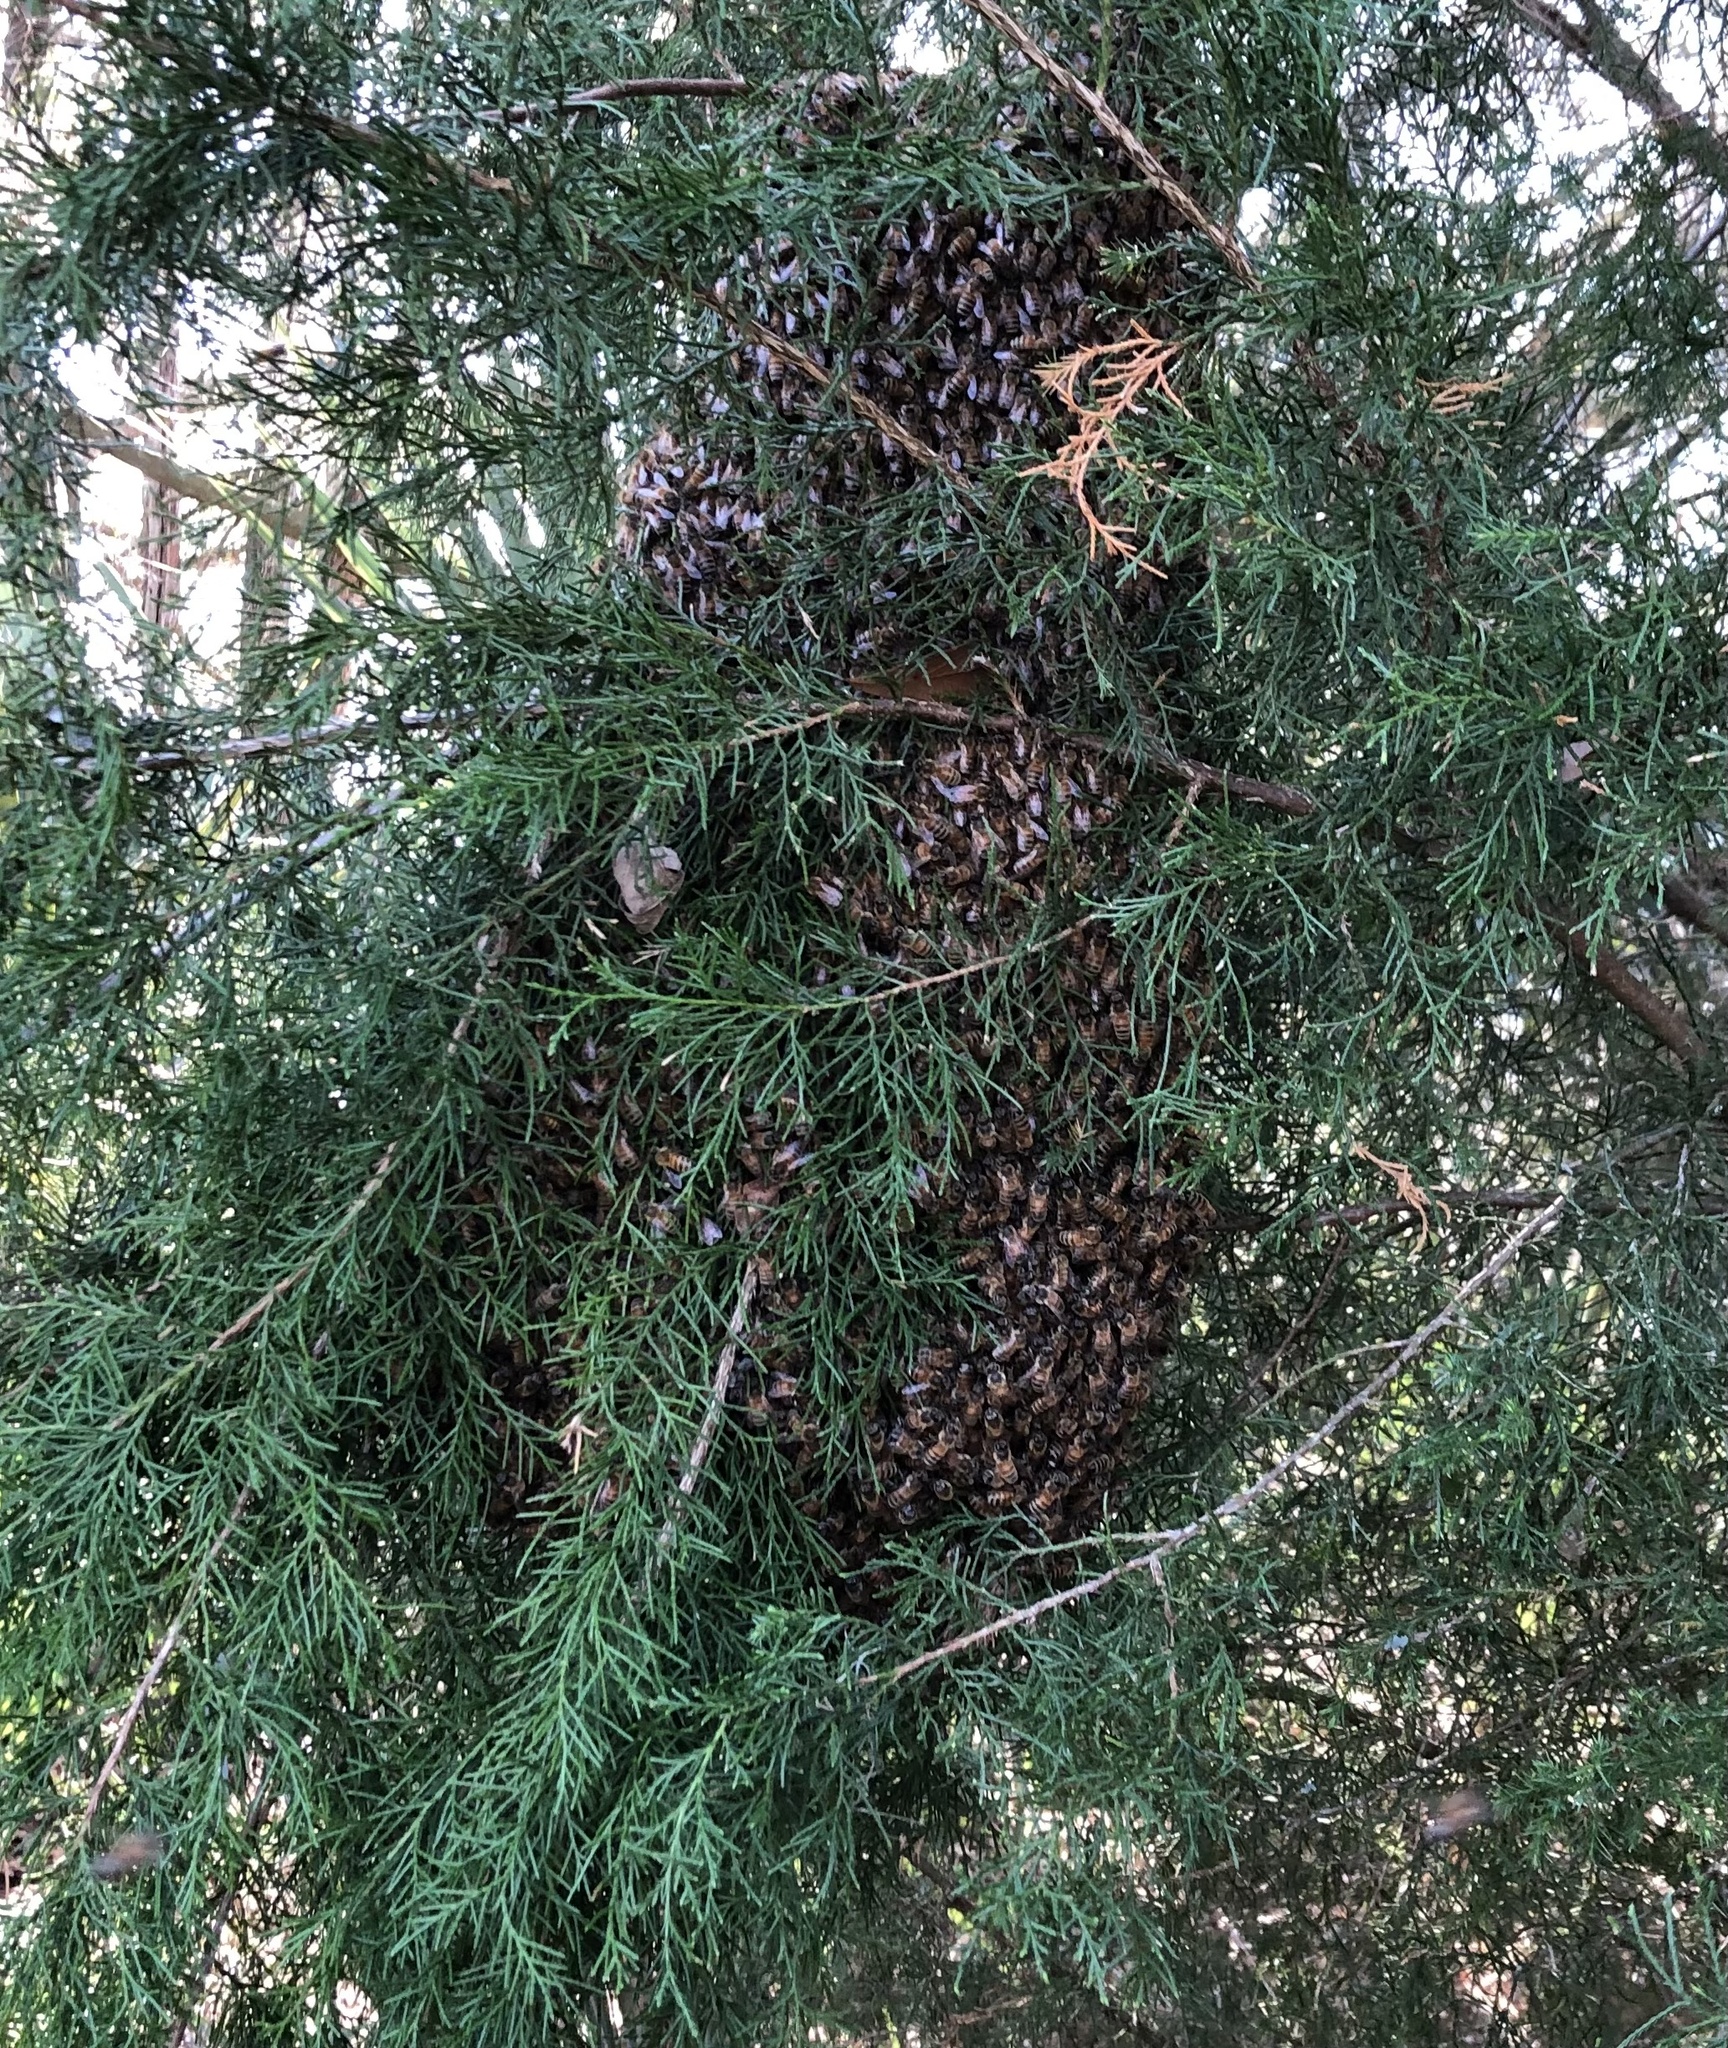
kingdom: Animalia
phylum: Arthropoda
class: Insecta
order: Hymenoptera
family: Apidae
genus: Apis
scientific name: Apis mellifera
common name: Honey bee
